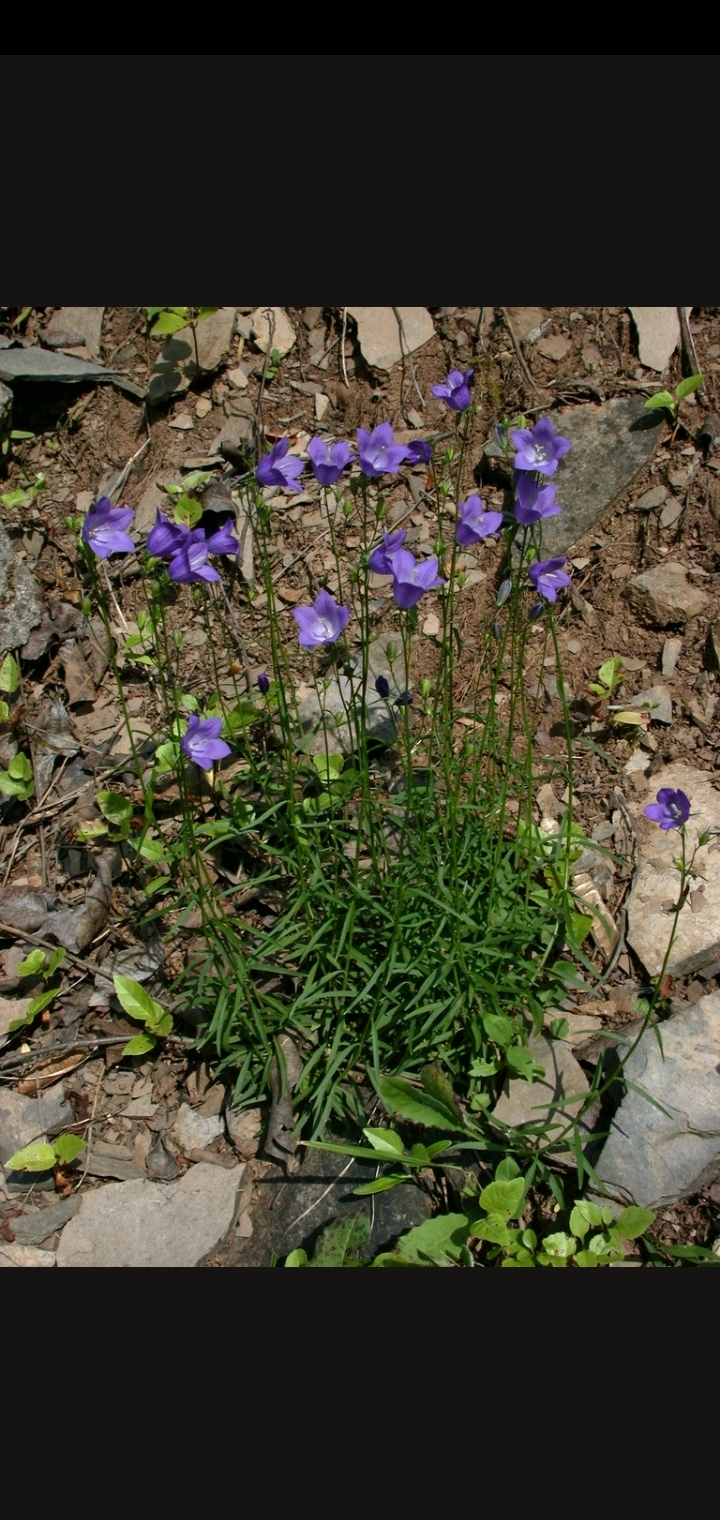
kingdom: Plantae
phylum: Tracheophyta
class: Magnoliopsida
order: Asterales
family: Campanulaceae
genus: Campanula
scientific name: Campanula rotundifolia
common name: Harebell
